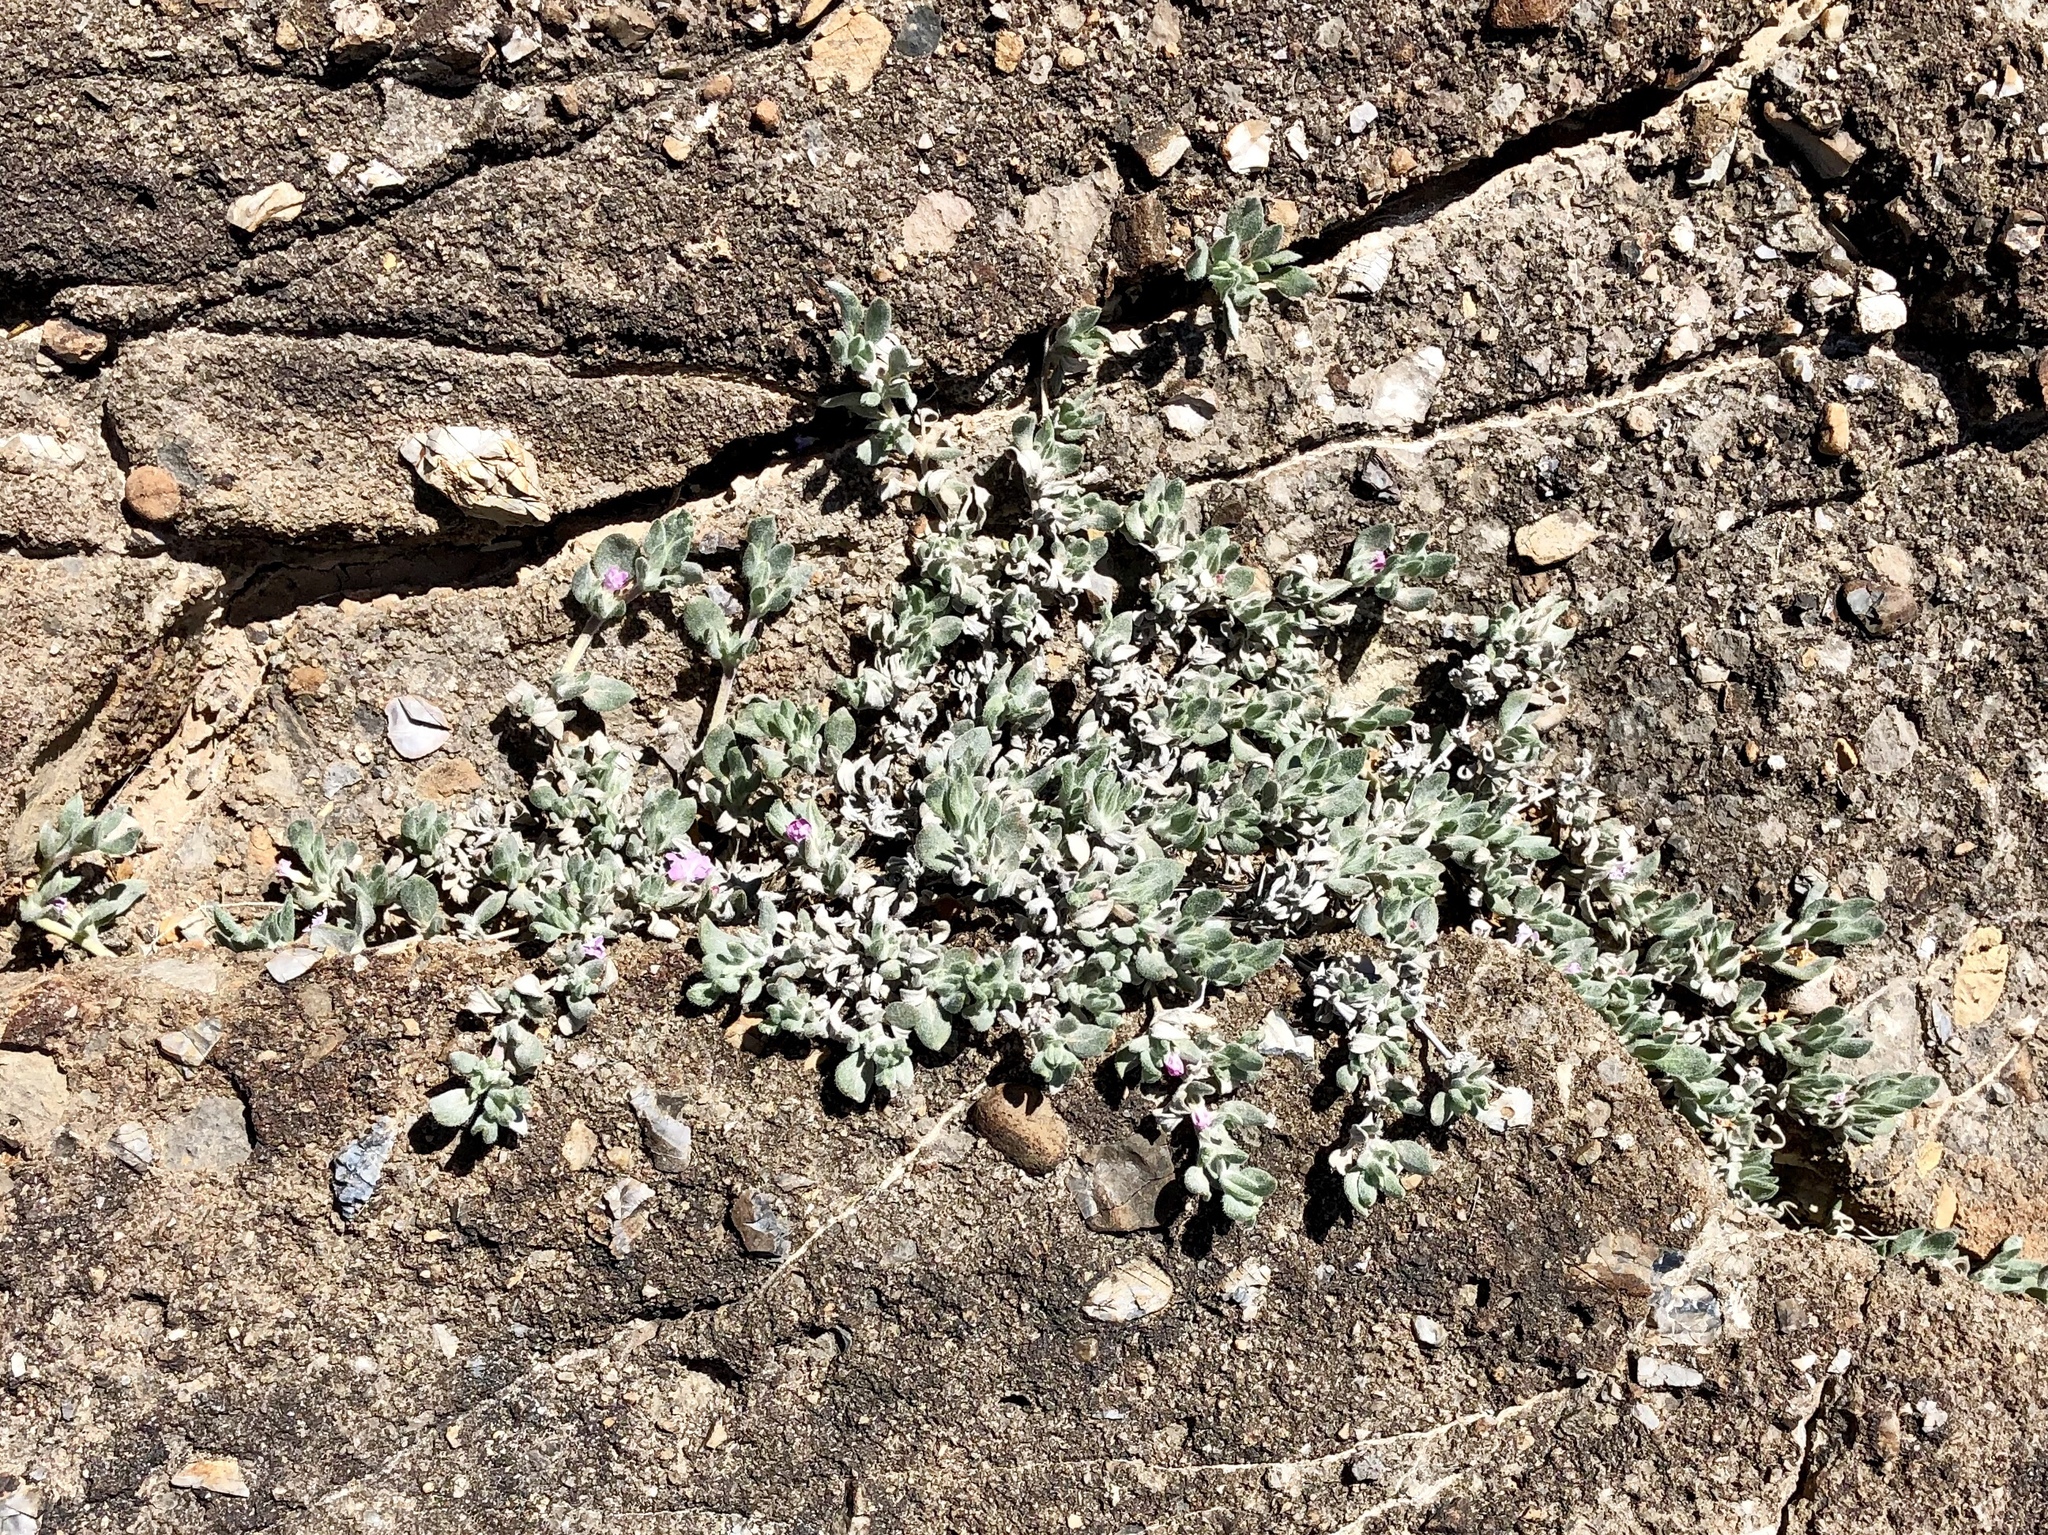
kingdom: Plantae
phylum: Tracheophyta
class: Magnoliopsida
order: Boraginales
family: Ehretiaceae
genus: Tiquilia
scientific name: Tiquilia canescens
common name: Hairy tiquilia
